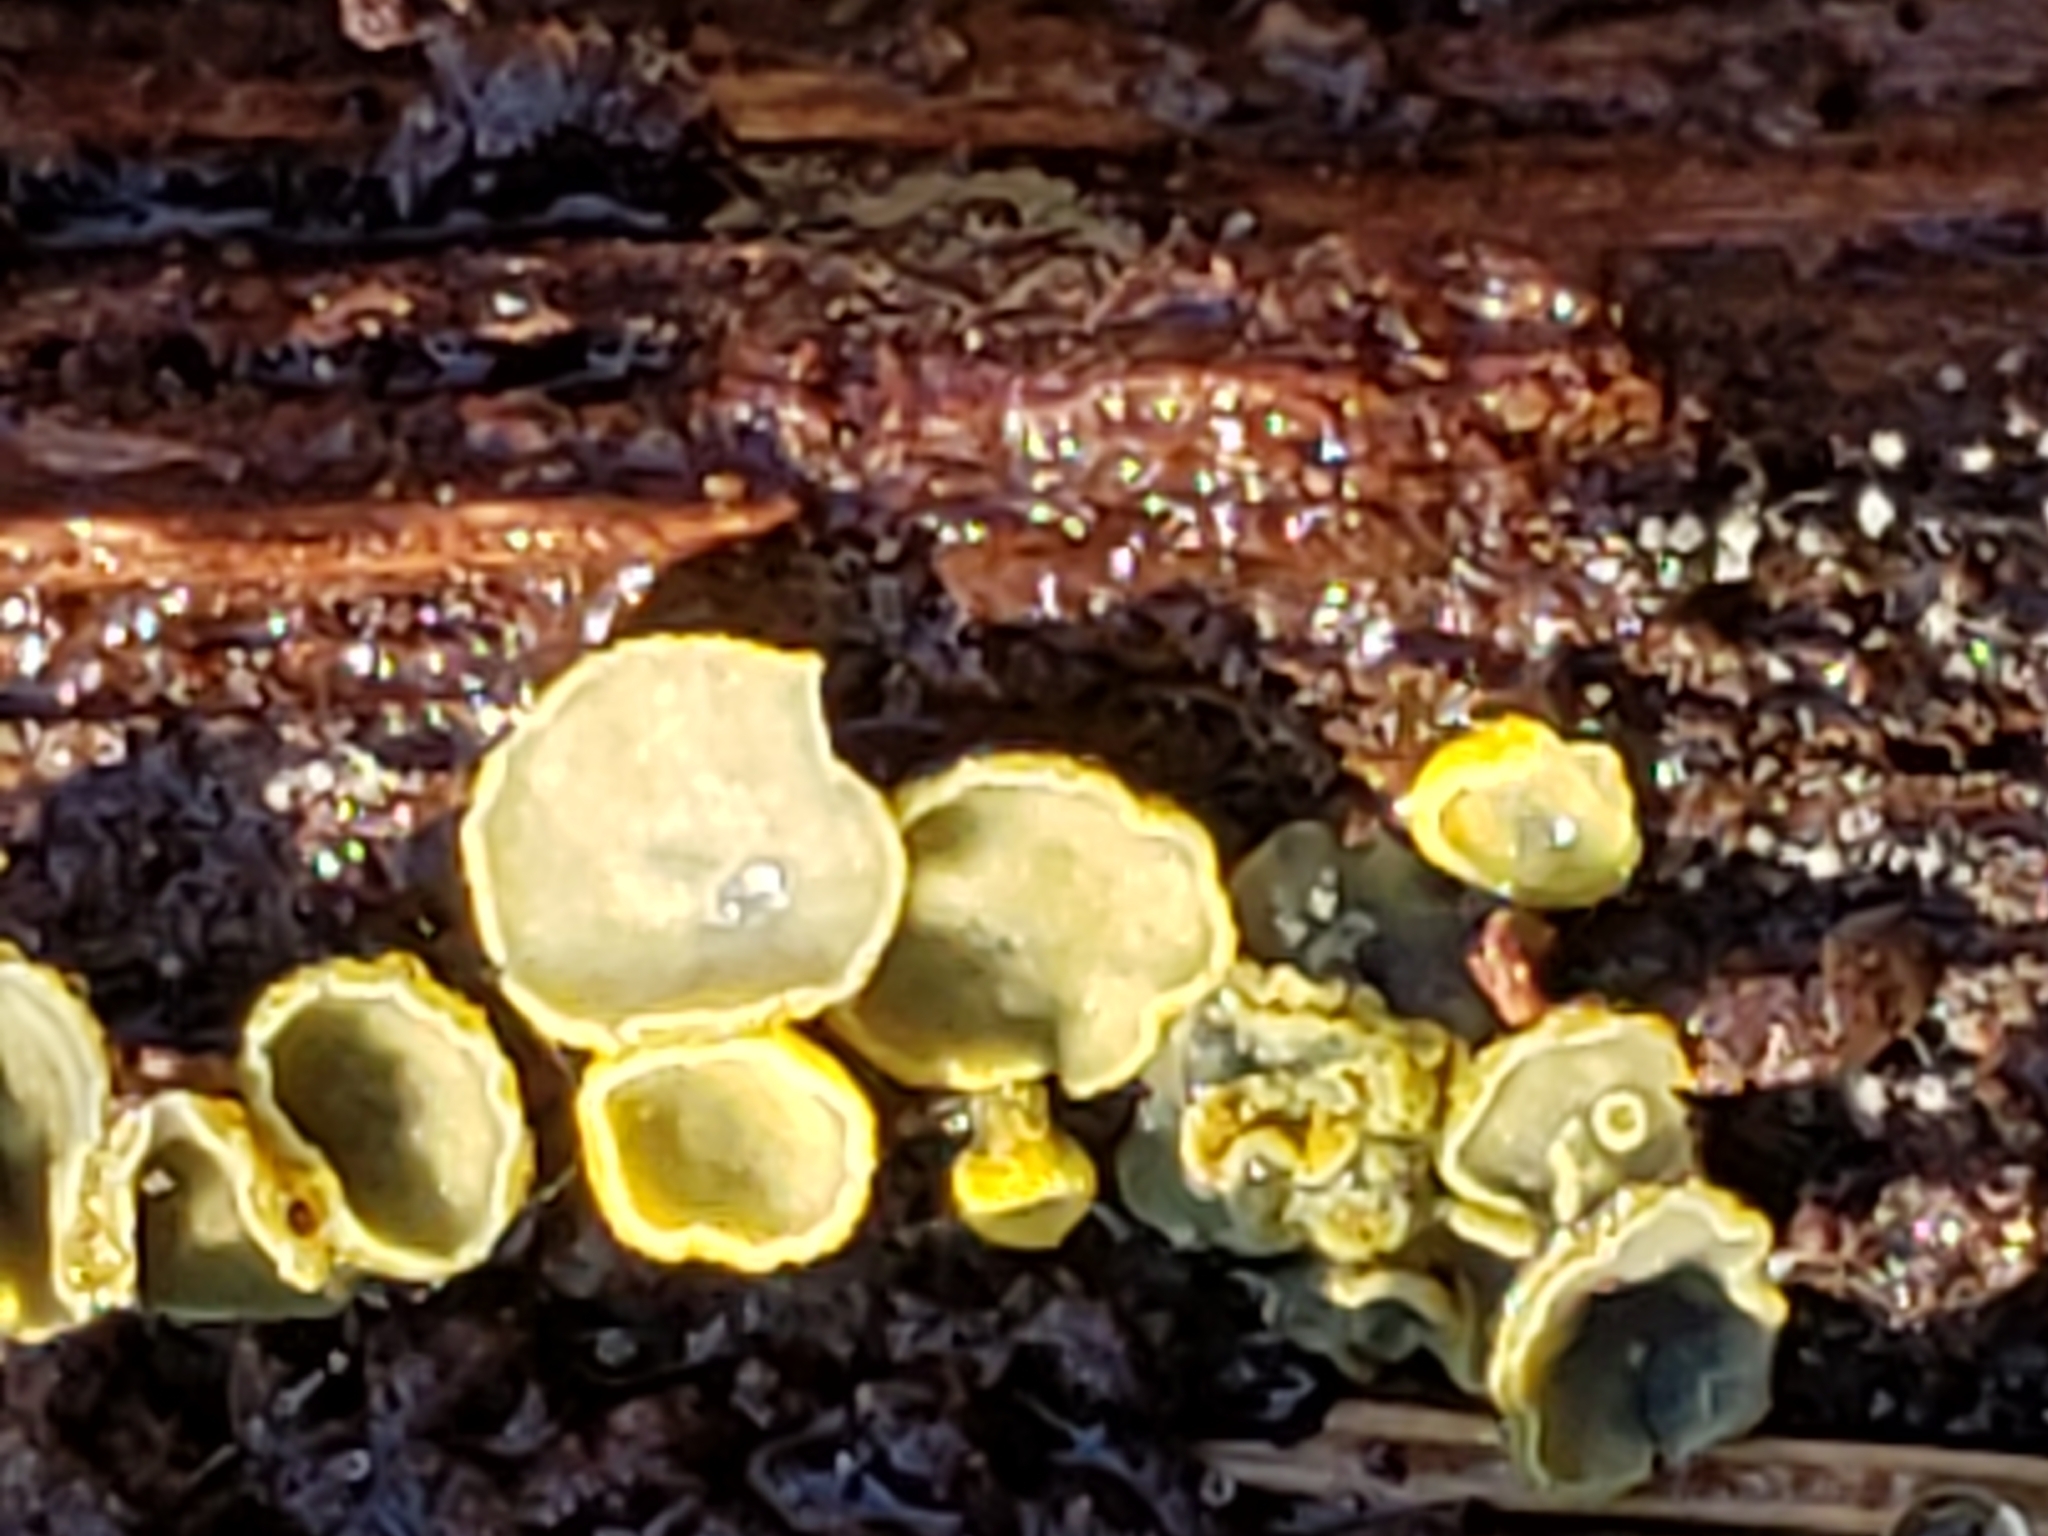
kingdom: Fungi
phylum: Ascomycota
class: Leotiomycetes
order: Helotiales
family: Chlorospleniaceae
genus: Chlorosplenium
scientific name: Chlorosplenium chlora
